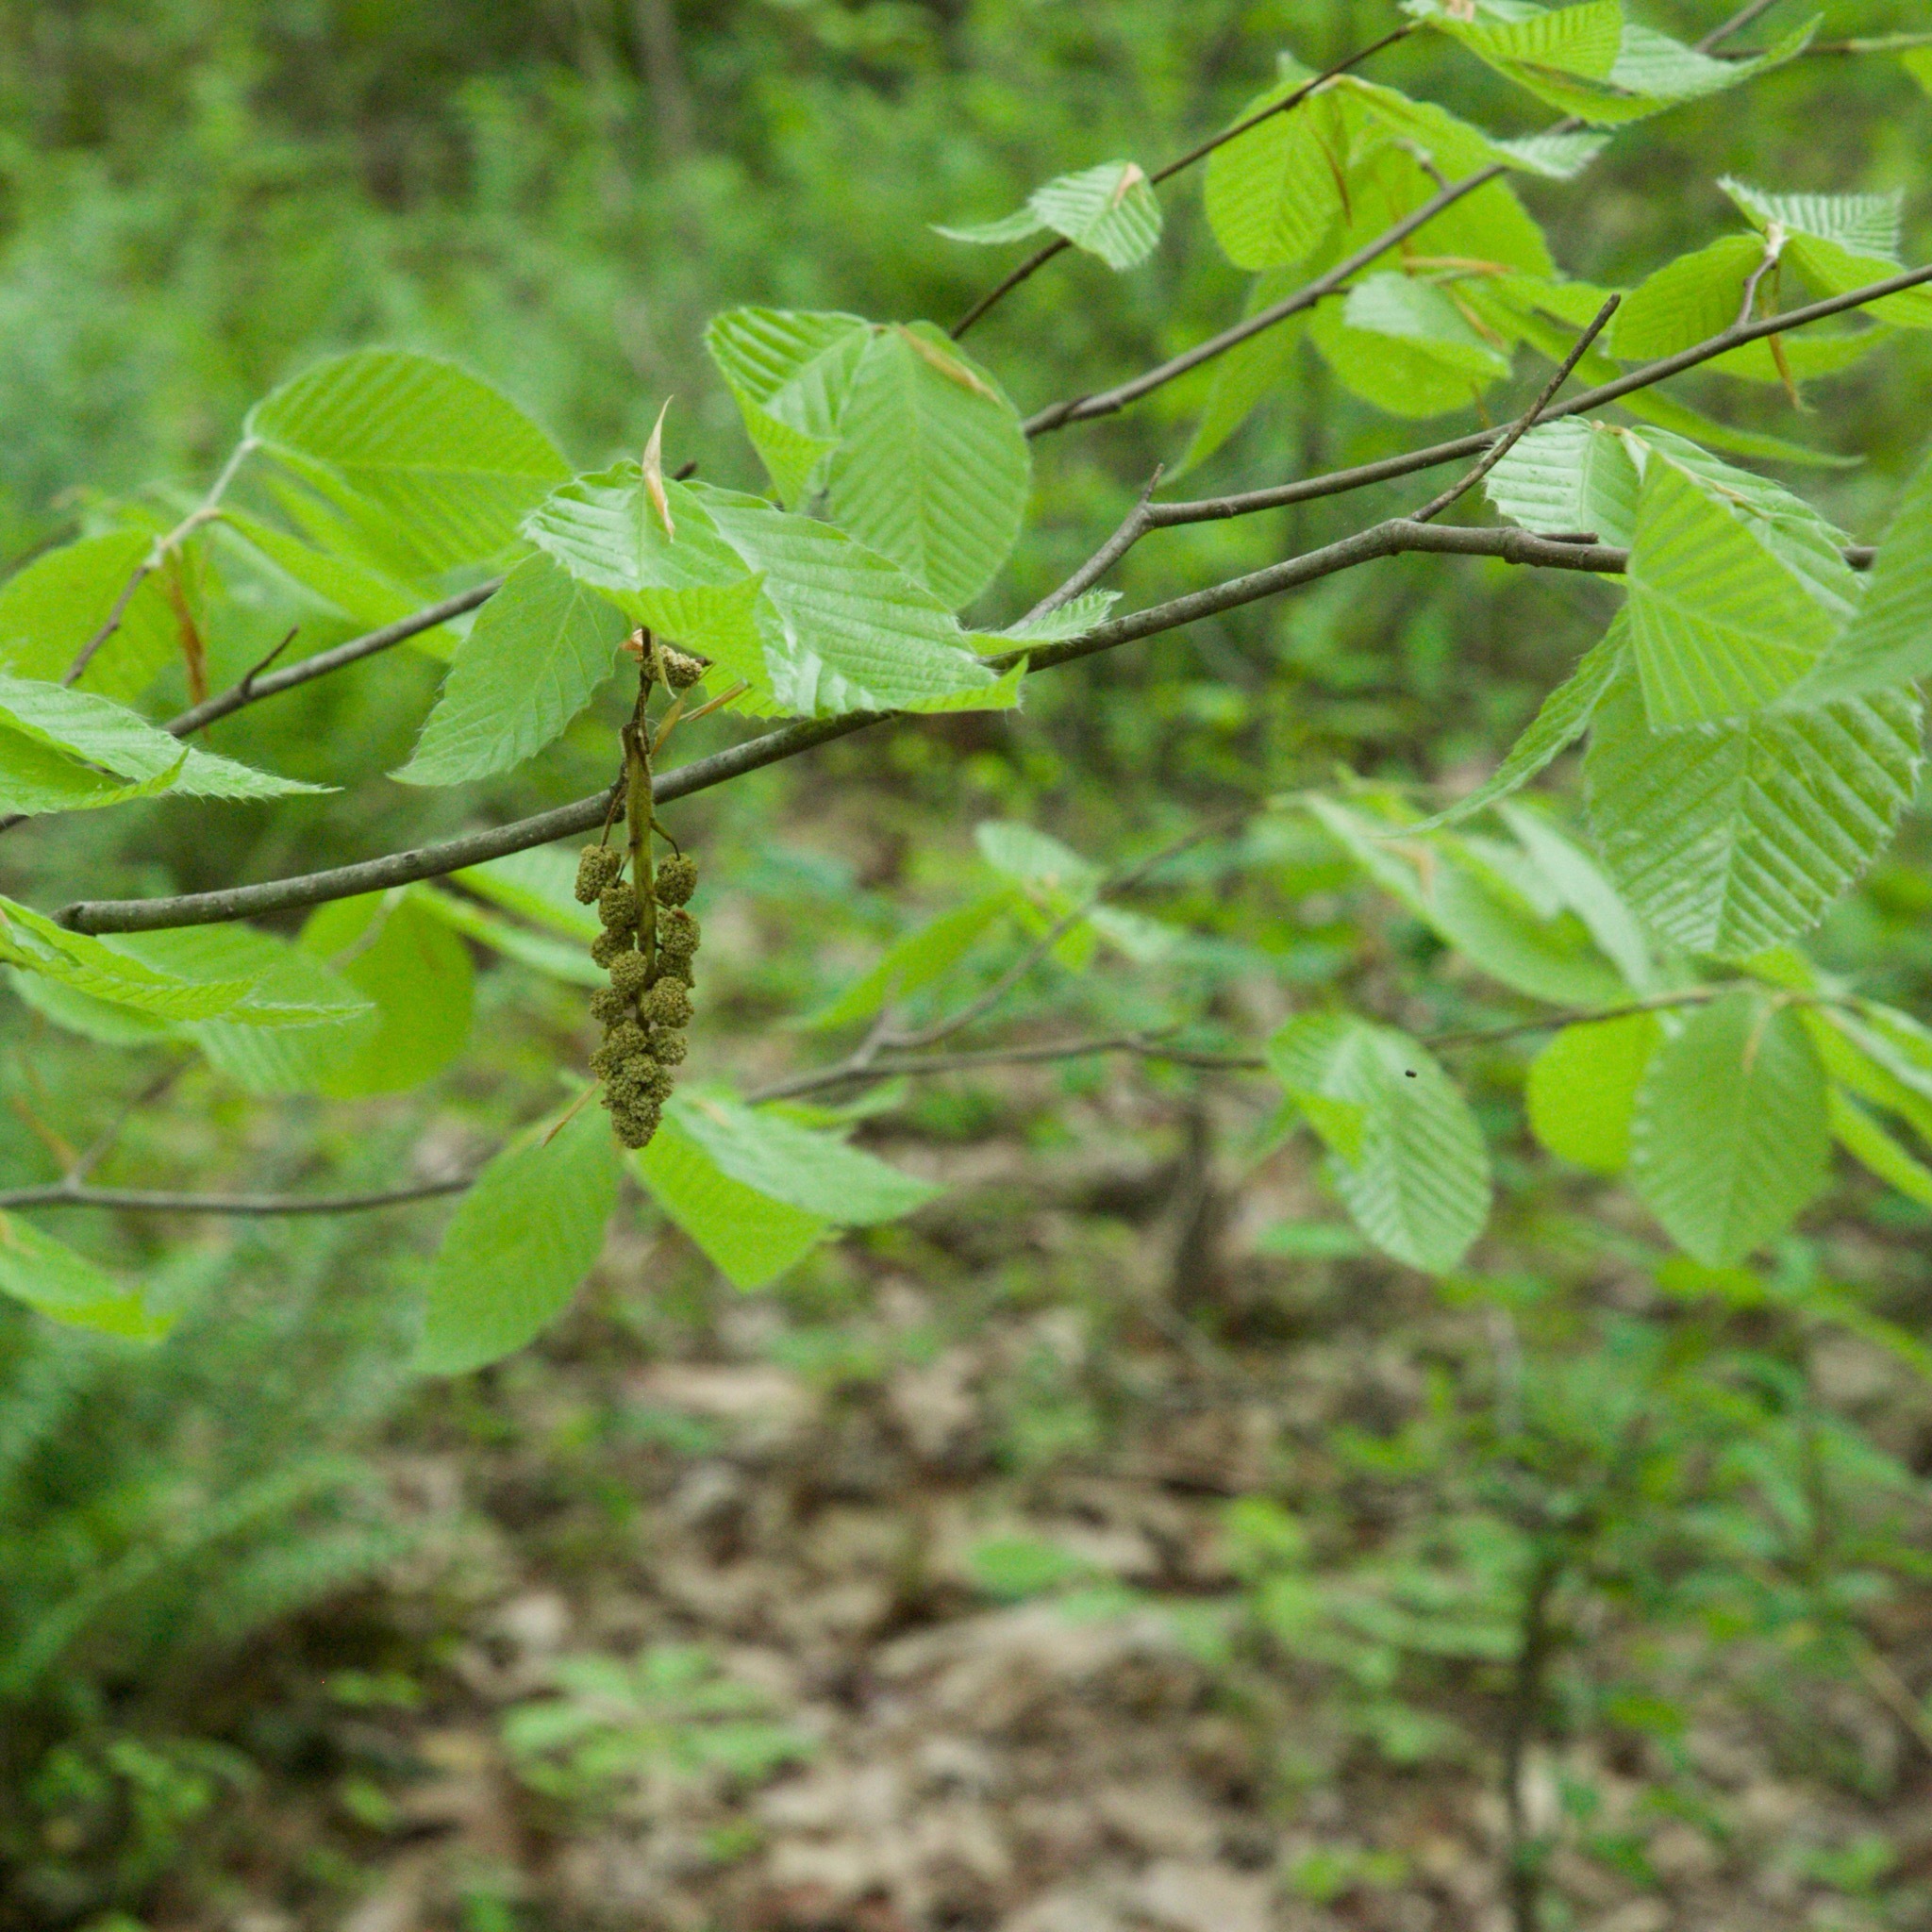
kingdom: Plantae
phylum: Tracheophyta
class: Magnoliopsida
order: Fagales
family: Betulaceae
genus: Carpinus
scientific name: Carpinus caroliniana
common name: American hornbeam
